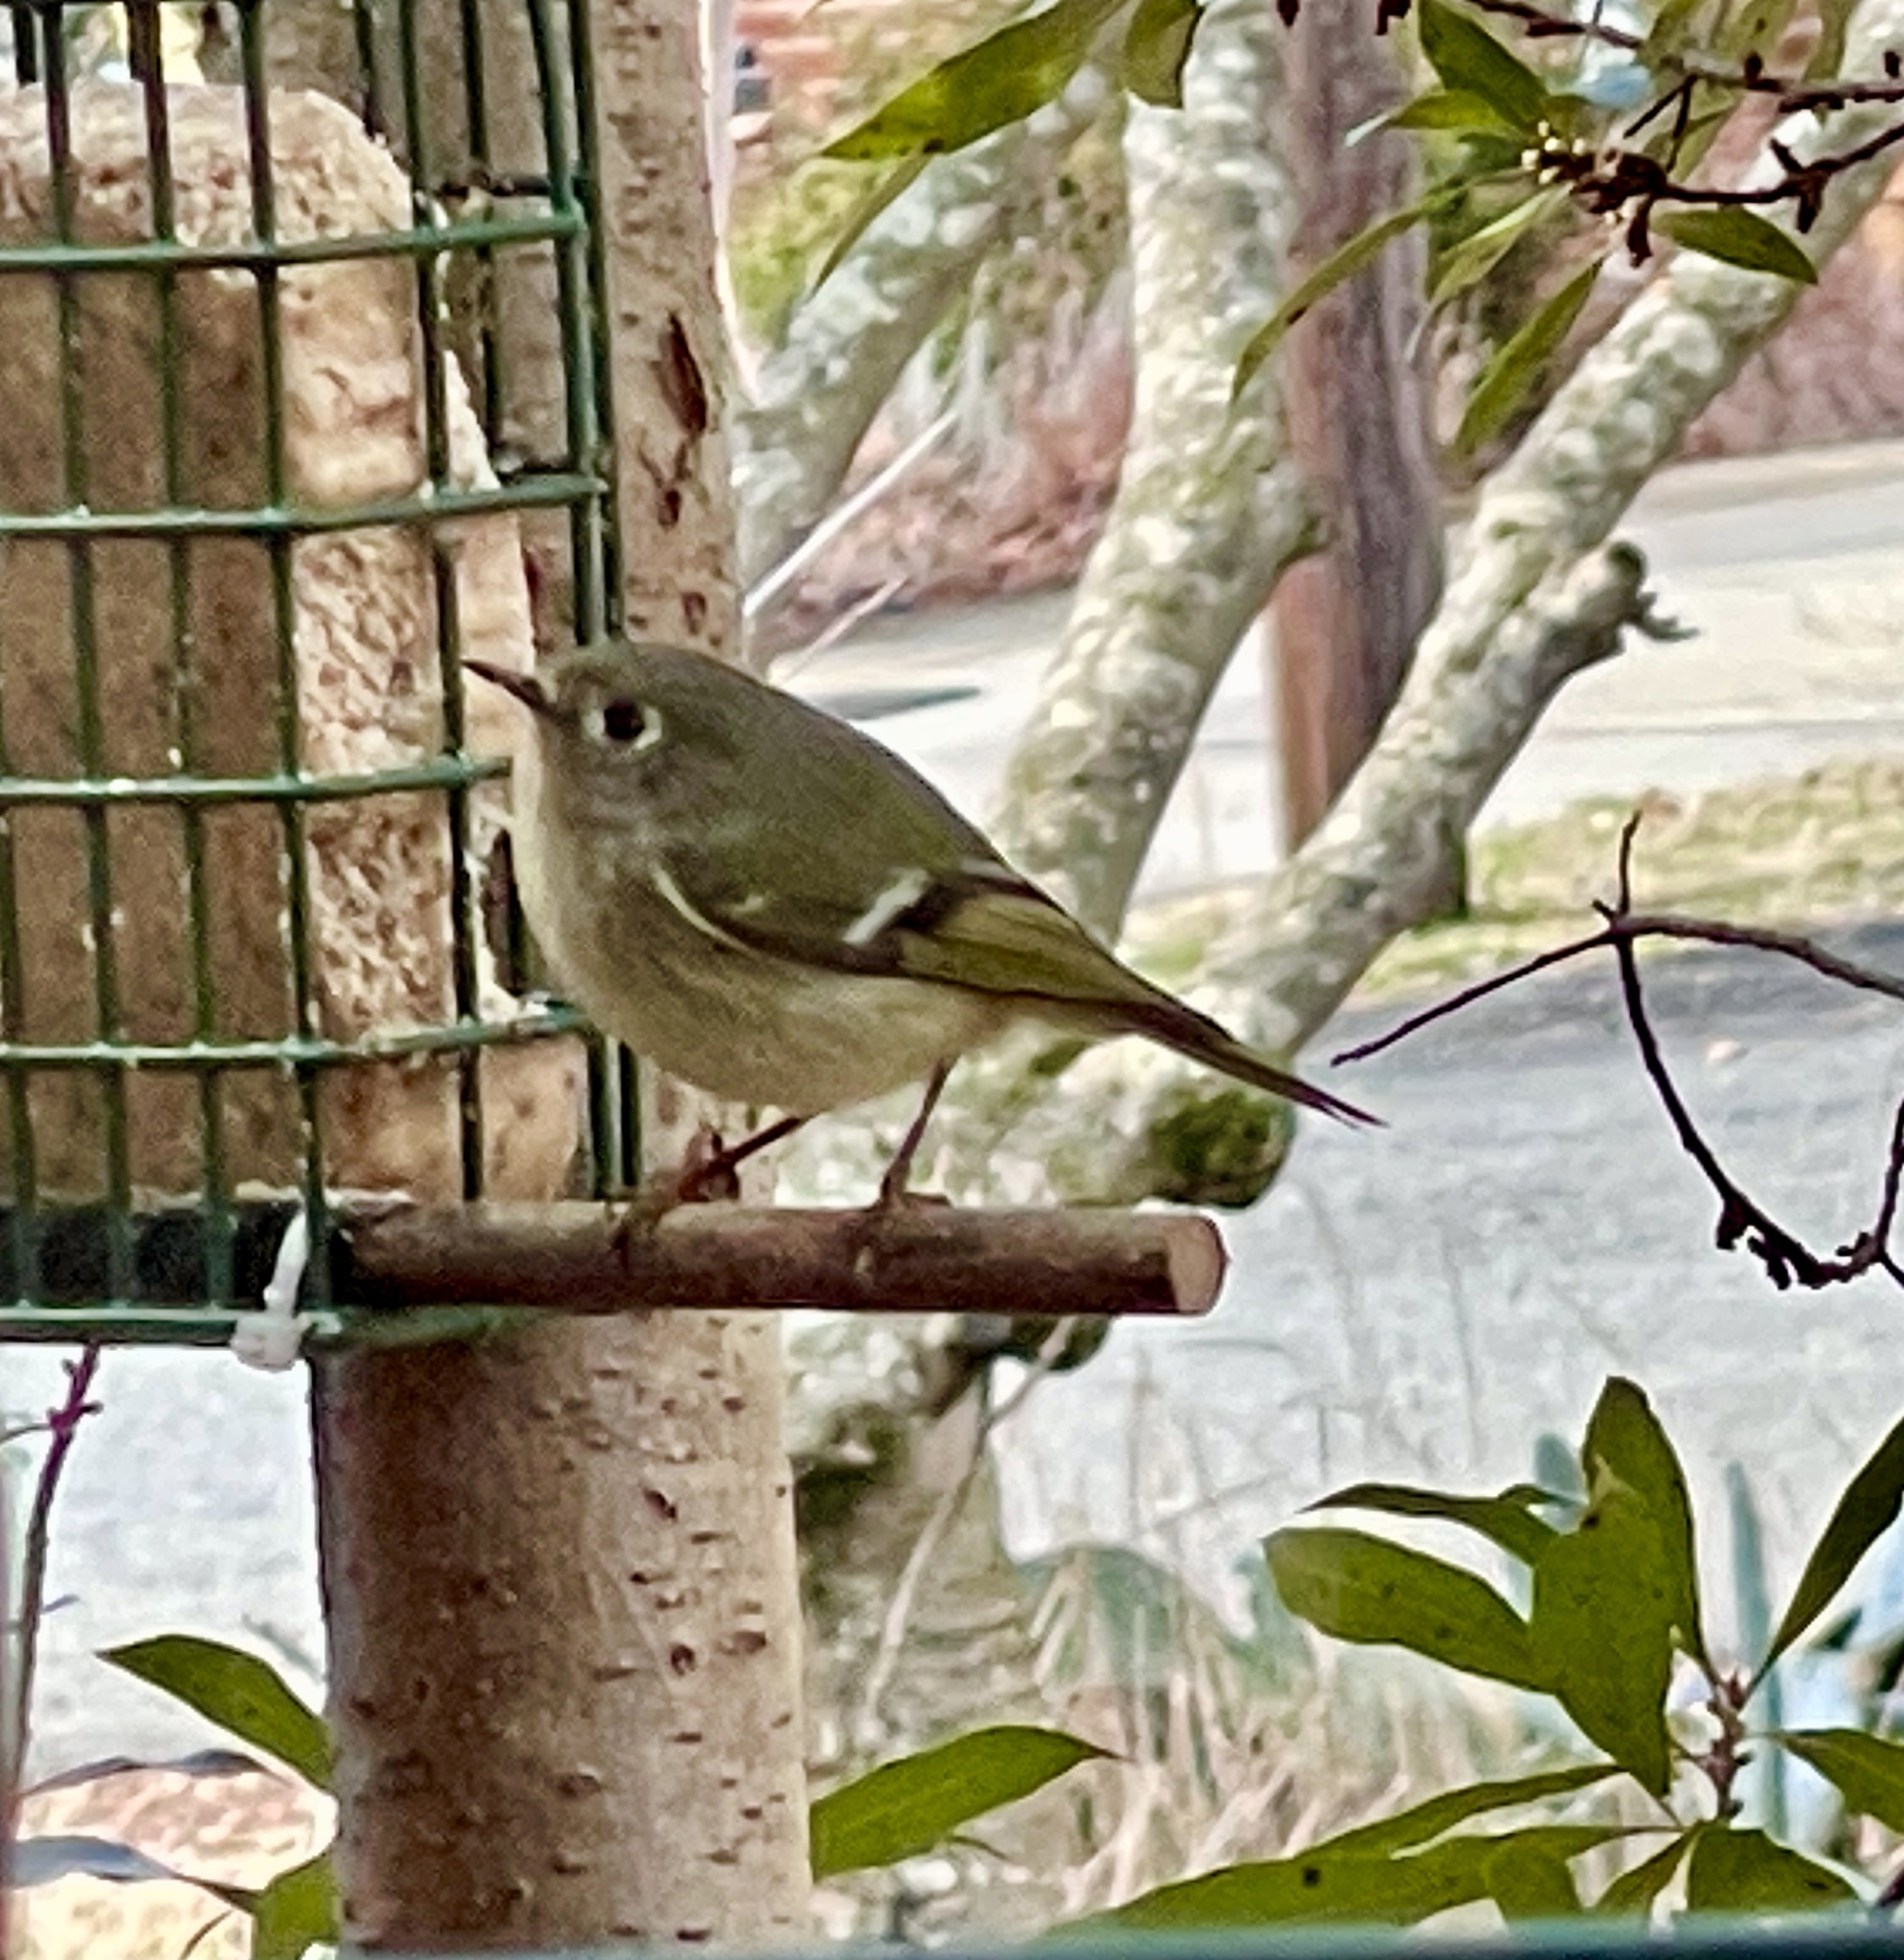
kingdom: Animalia
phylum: Chordata
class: Aves
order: Passeriformes
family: Regulidae
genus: Regulus
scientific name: Regulus calendula
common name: Ruby-crowned kinglet
